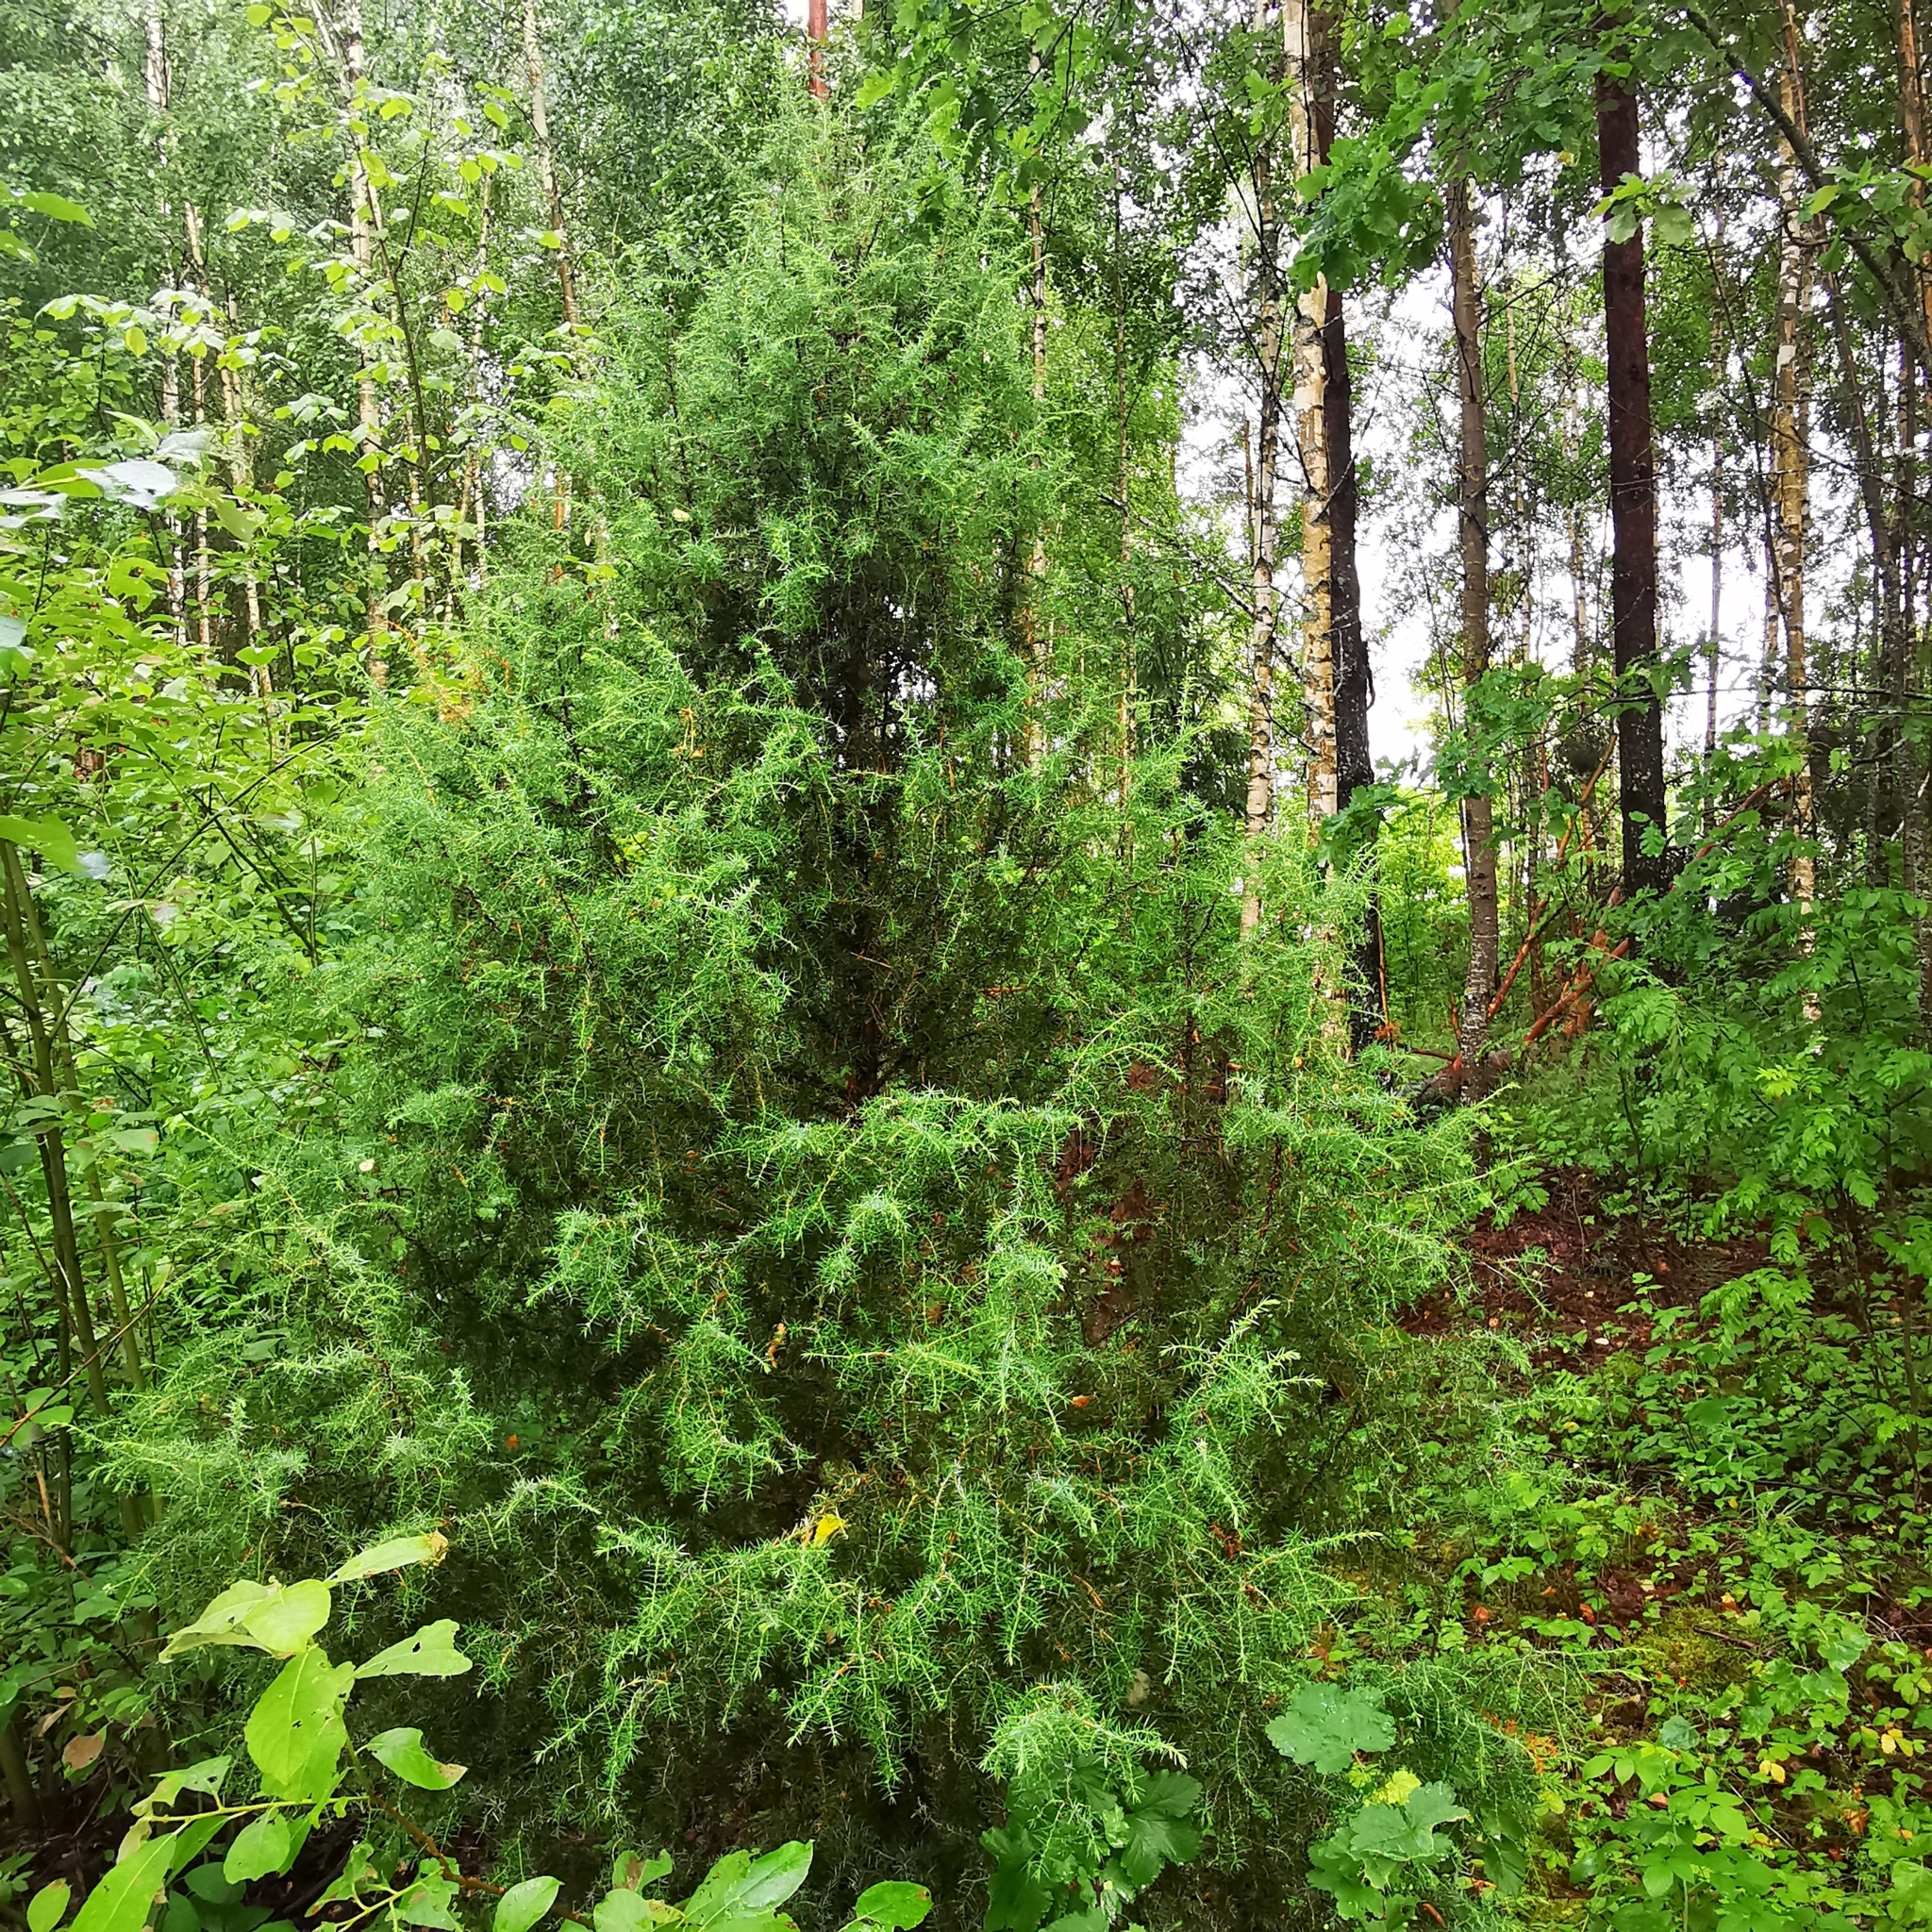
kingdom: Plantae
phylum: Tracheophyta
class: Pinopsida
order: Pinales
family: Cupressaceae
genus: Juniperus
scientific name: Juniperus communis
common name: Common juniper
